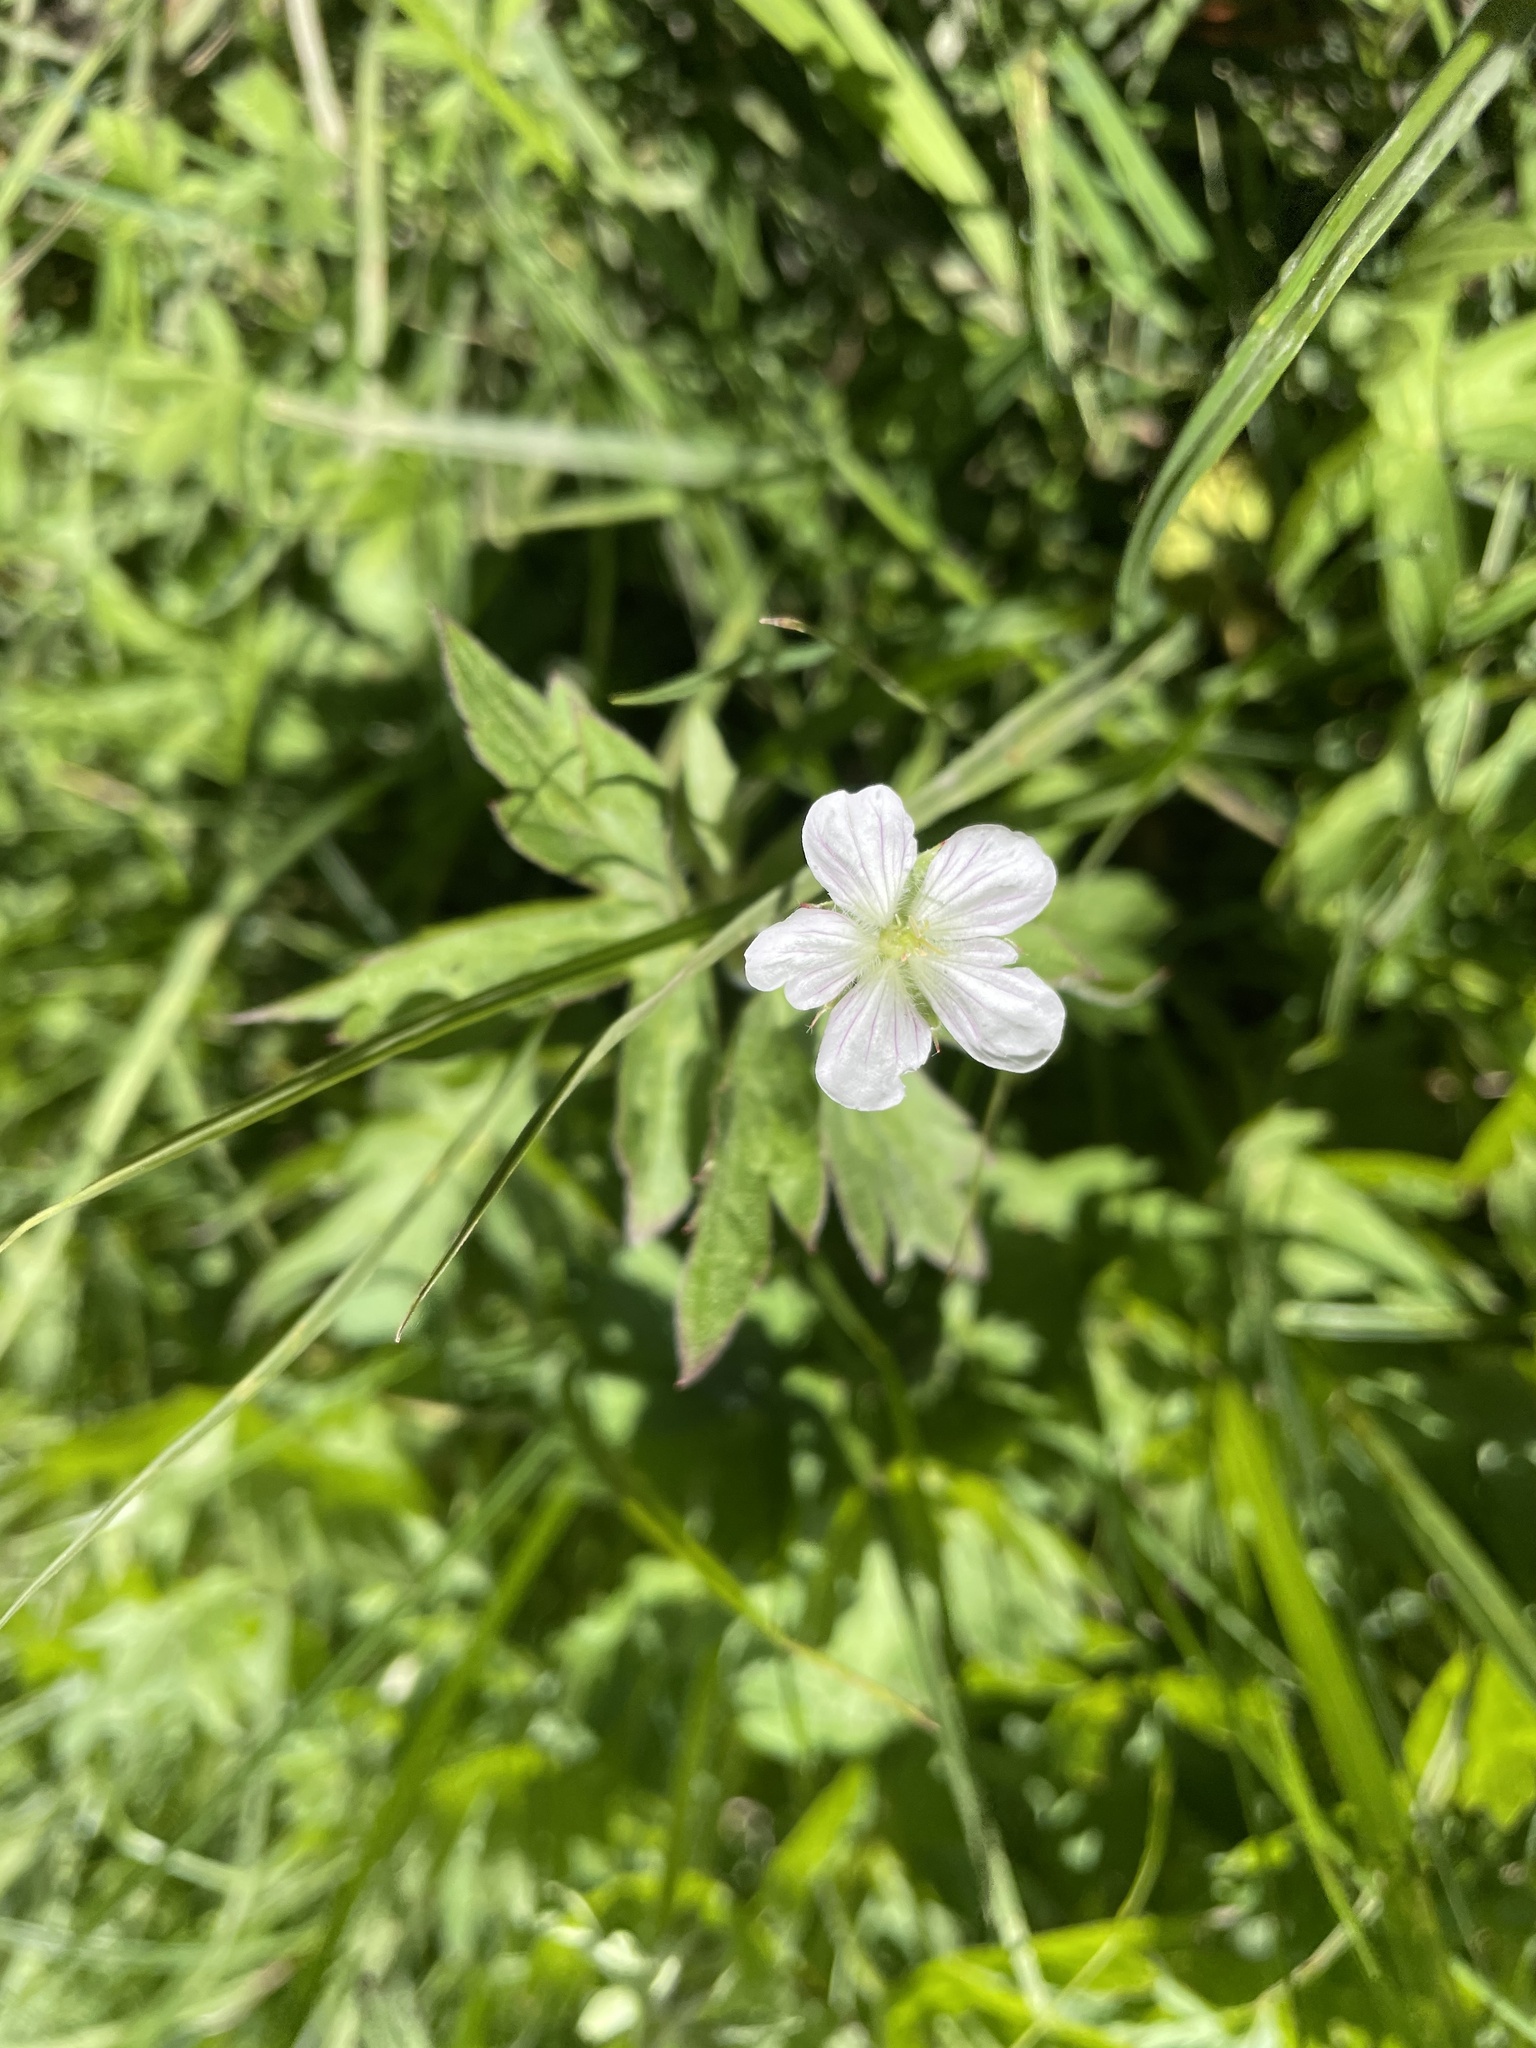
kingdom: Plantae
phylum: Tracheophyta
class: Magnoliopsida
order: Geraniales
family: Geraniaceae
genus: Geranium
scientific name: Geranium richardsonii
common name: Richardson's crane's-bill
